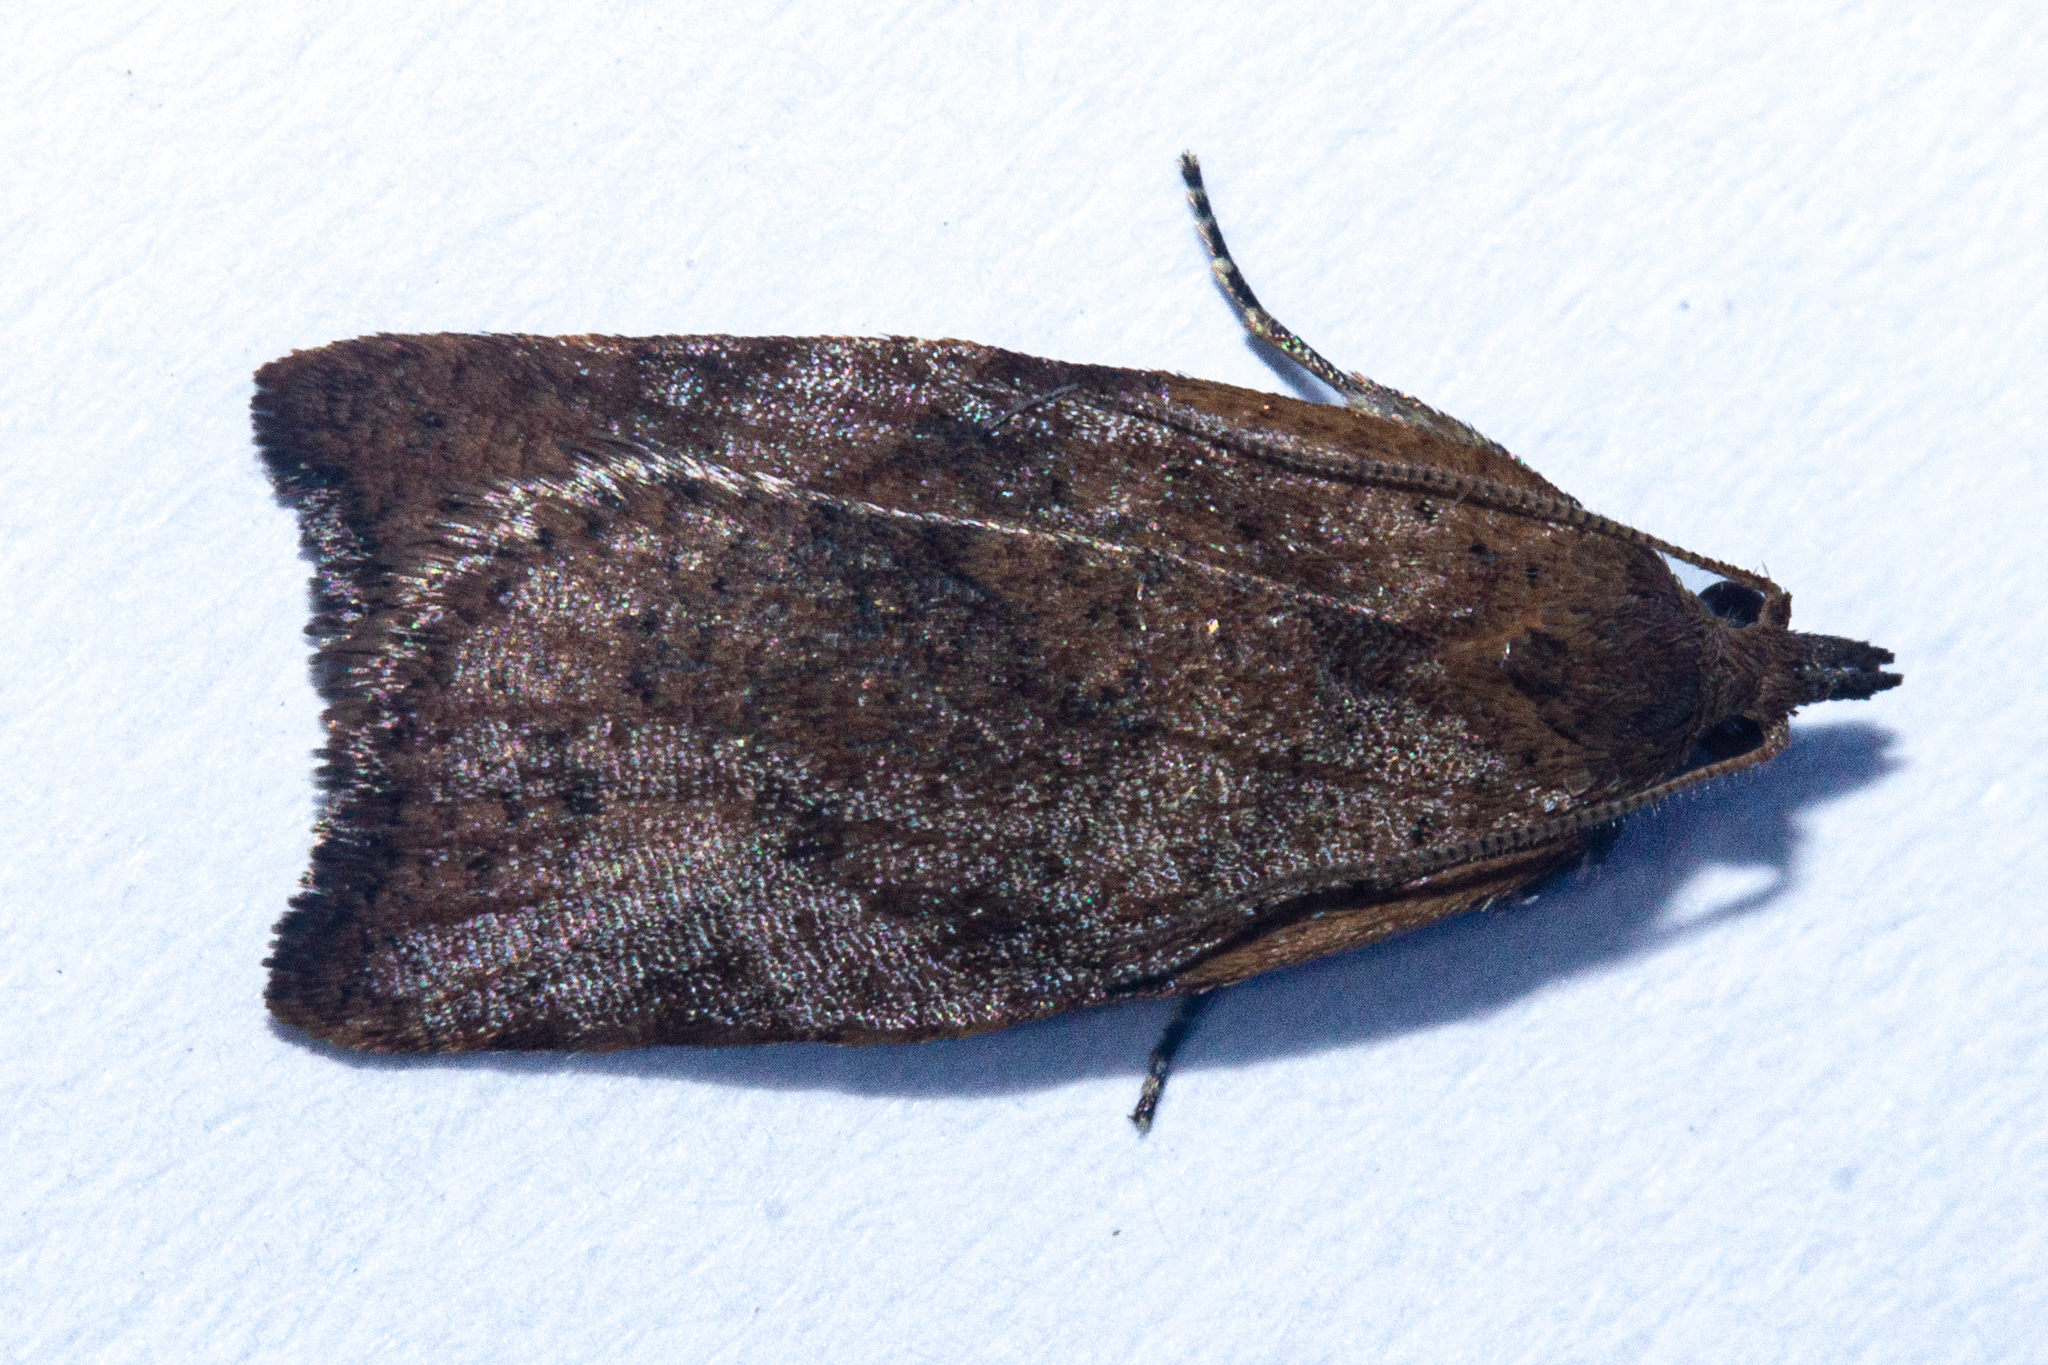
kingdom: Animalia
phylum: Arthropoda
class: Insecta
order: Lepidoptera
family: Tortricidae
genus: Apoctena
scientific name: Apoctena flavescens
